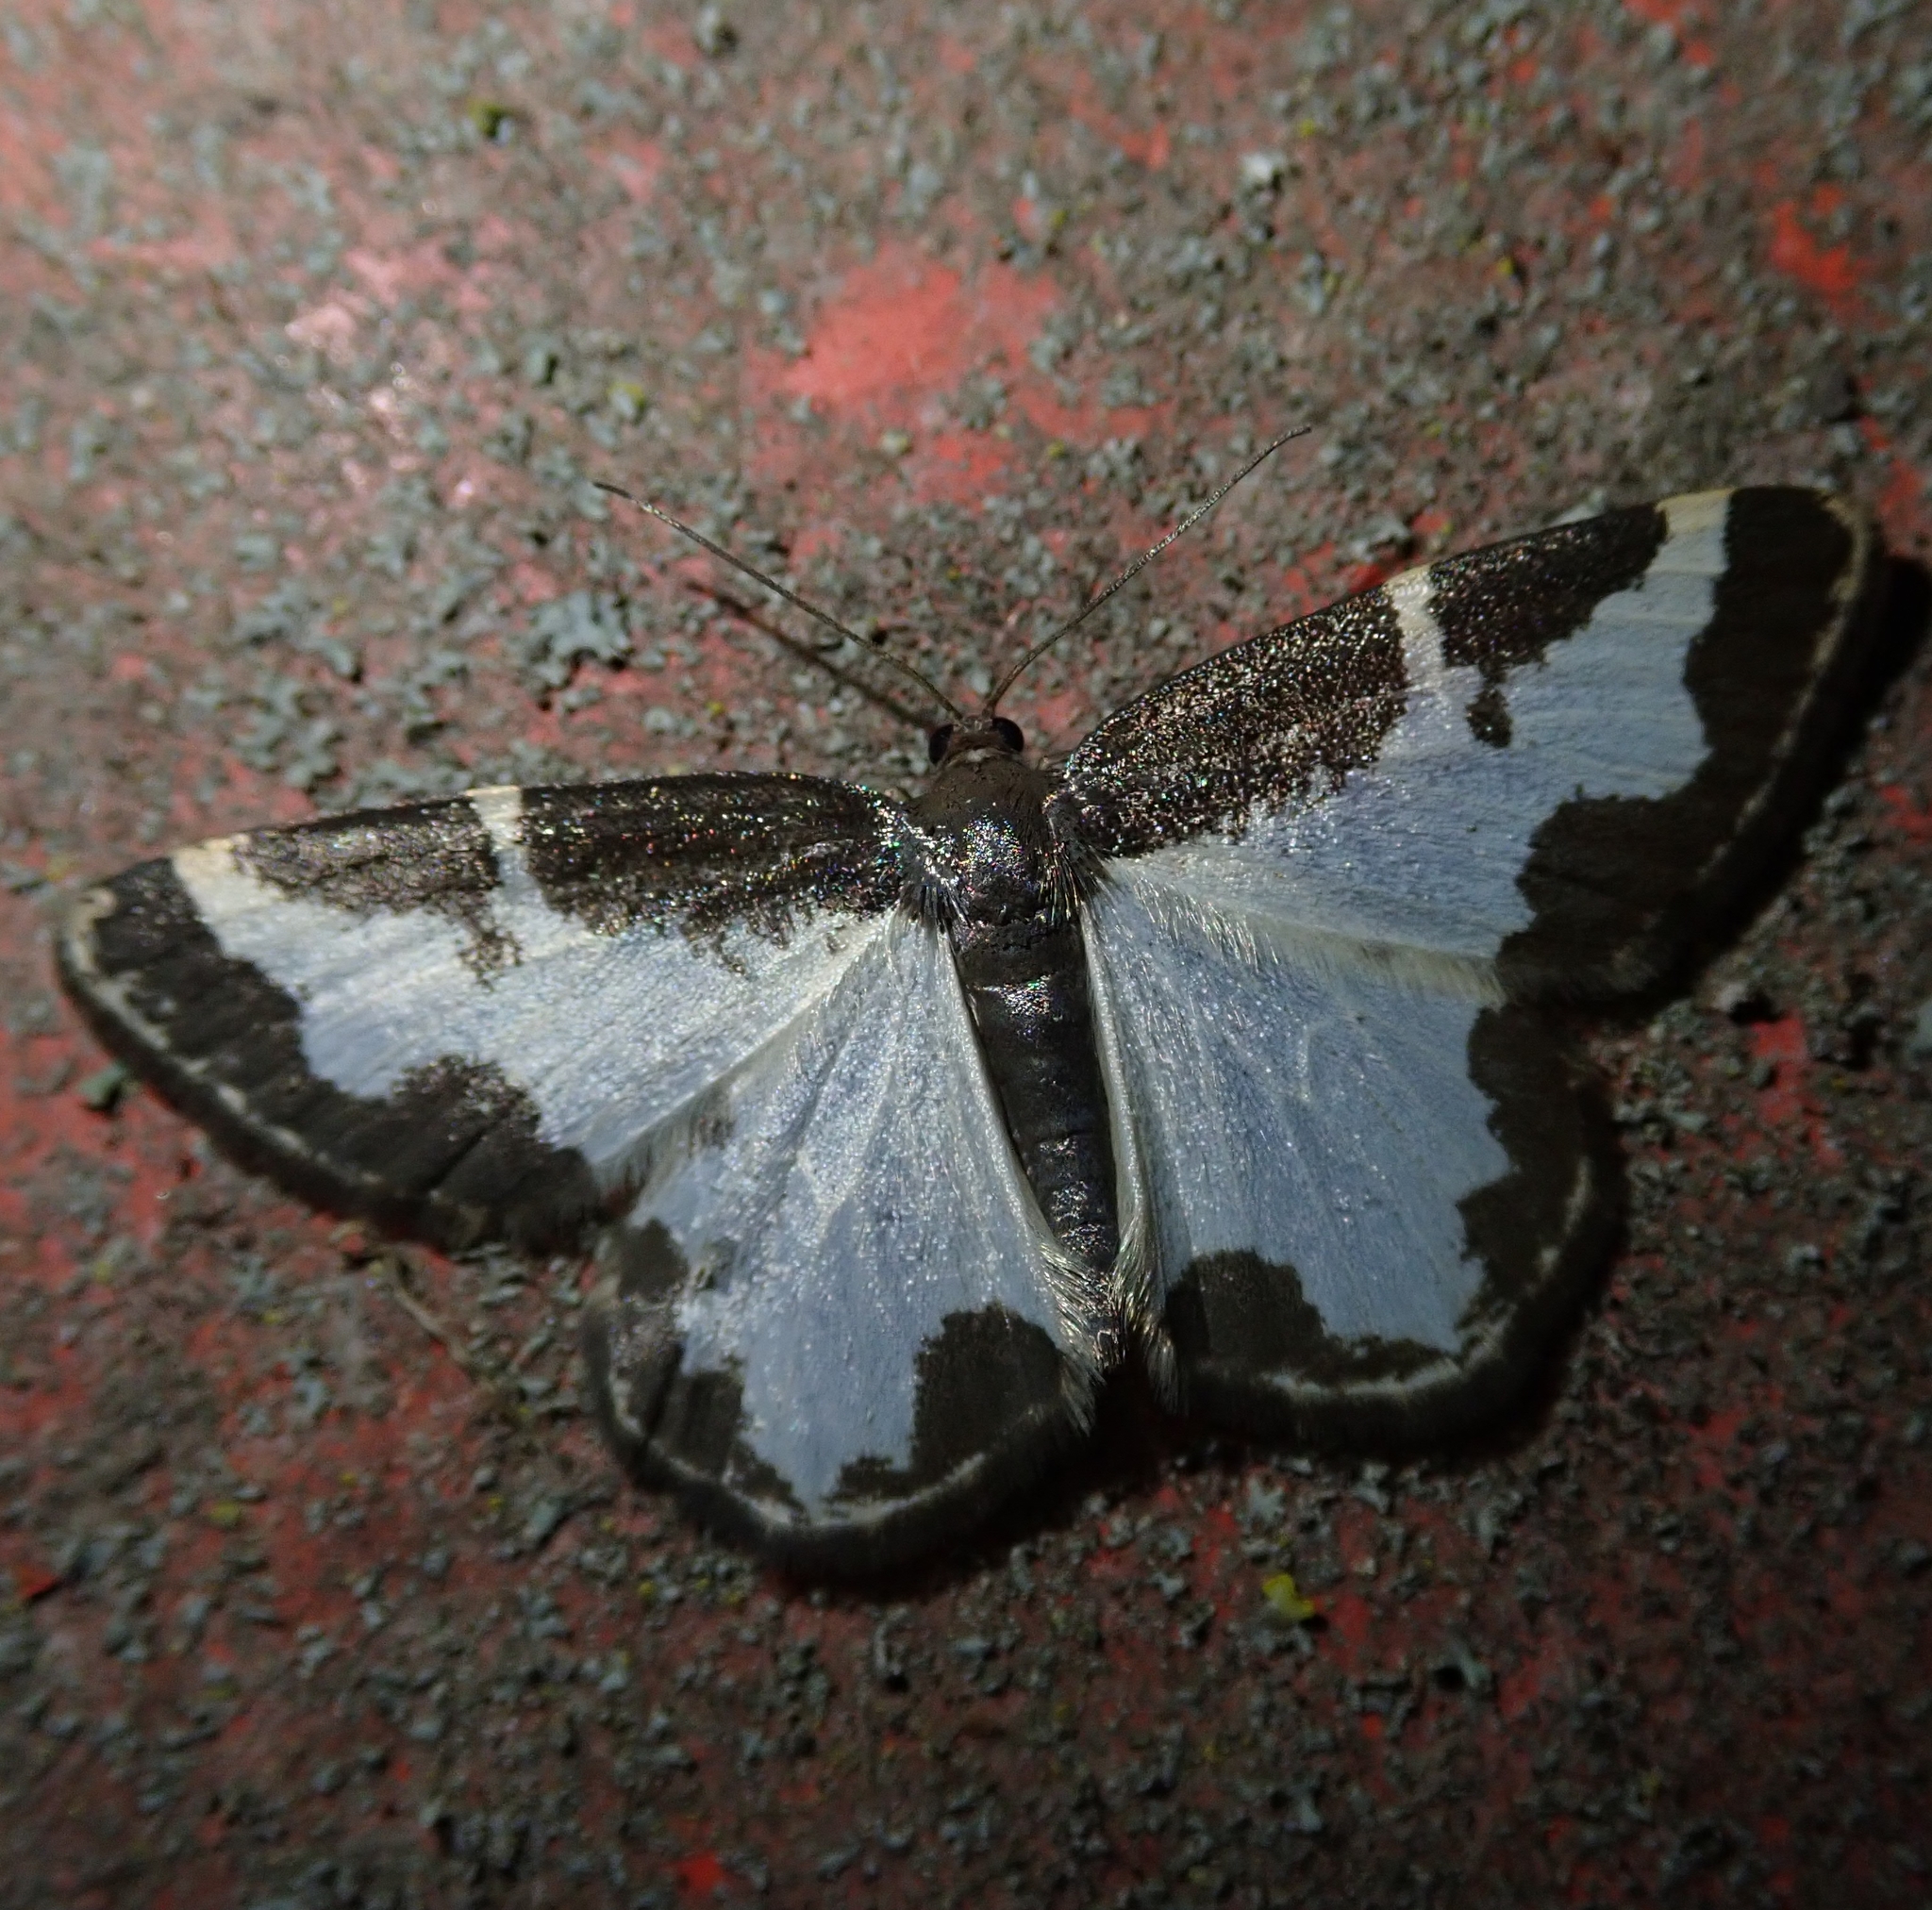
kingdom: Animalia
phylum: Arthropoda
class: Insecta
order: Lepidoptera
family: Geometridae
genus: Lomaspilis
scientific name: Lomaspilis marginata
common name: Clouded border
